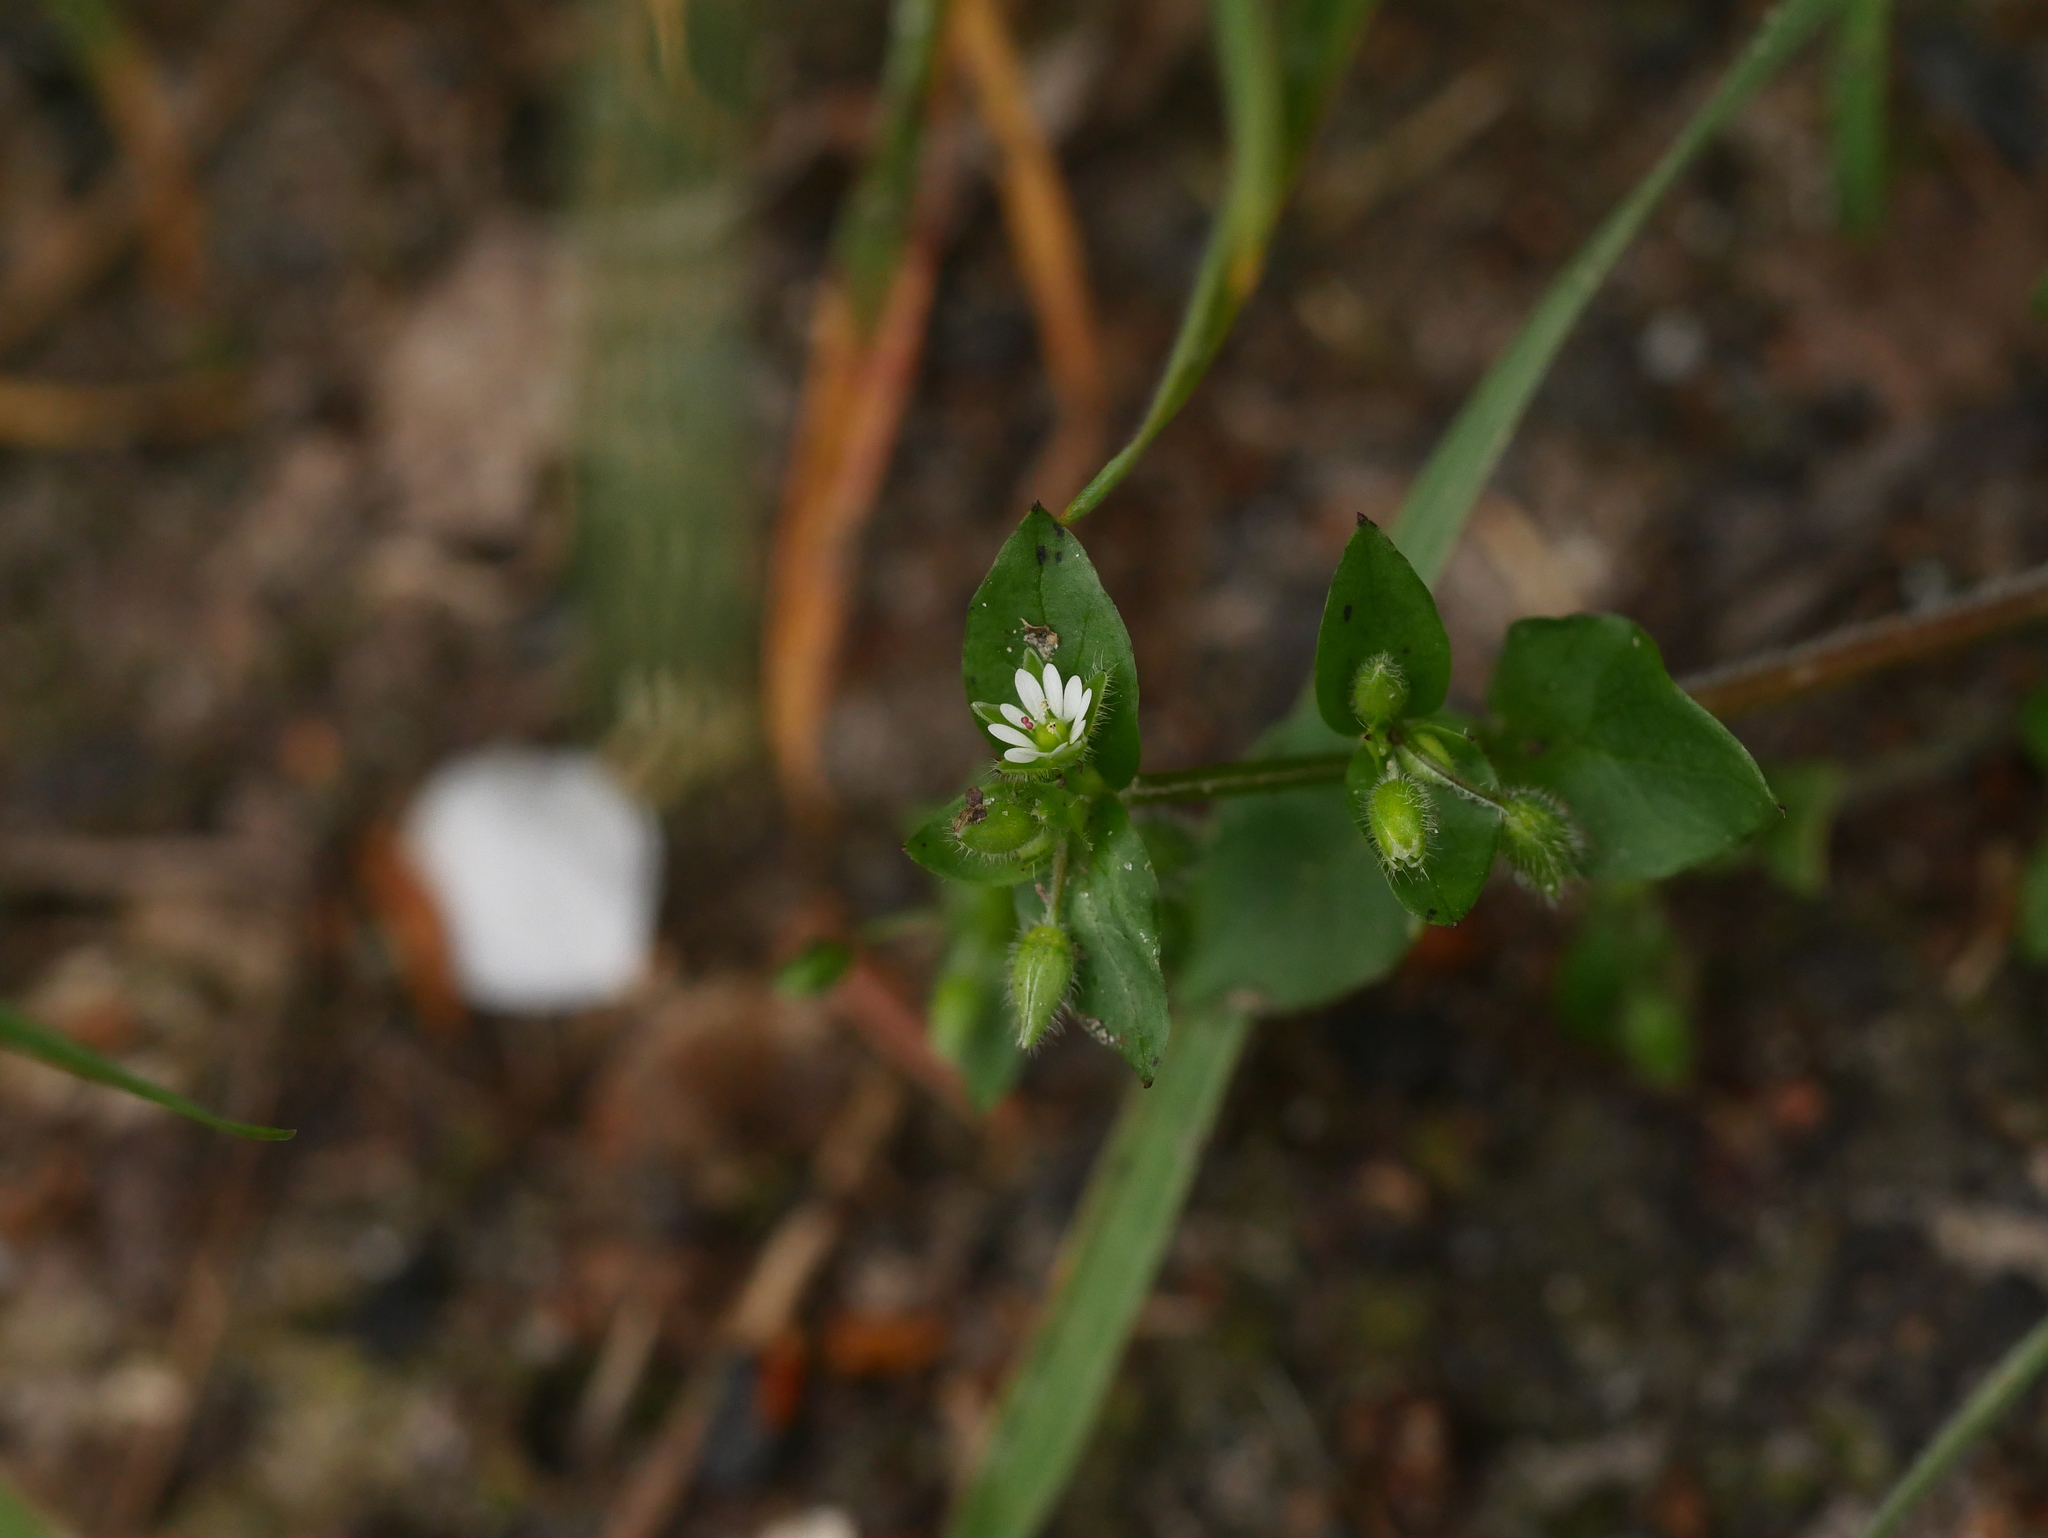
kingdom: Plantae
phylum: Tracheophyta
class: Magnoliopsida
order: Caryophyllales
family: Caryophyllaceae
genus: Stellaria
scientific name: Stellaria media
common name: Common chickweed
